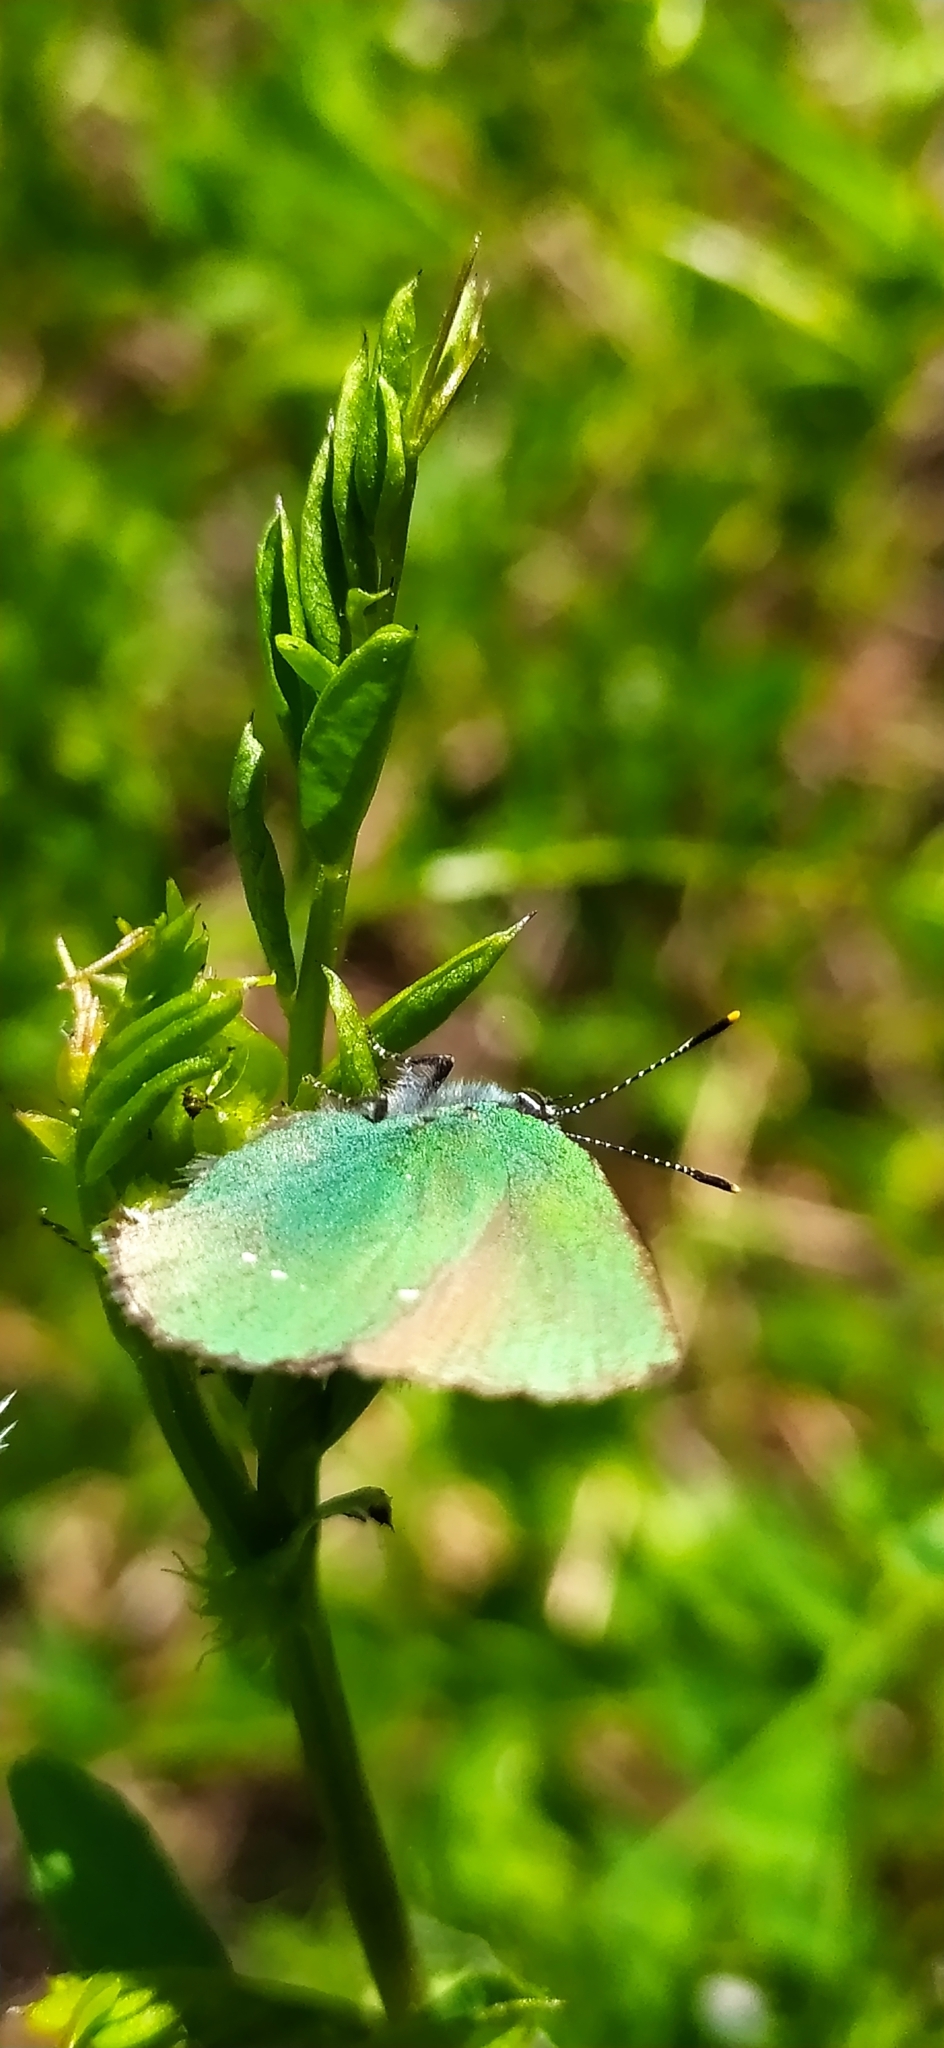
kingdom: Animalia
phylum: Arthropoda
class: Insecta
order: Lepidoptera
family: Lycaenidae
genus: Callophrys
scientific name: Callophrys rubi
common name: Green hairstreak
